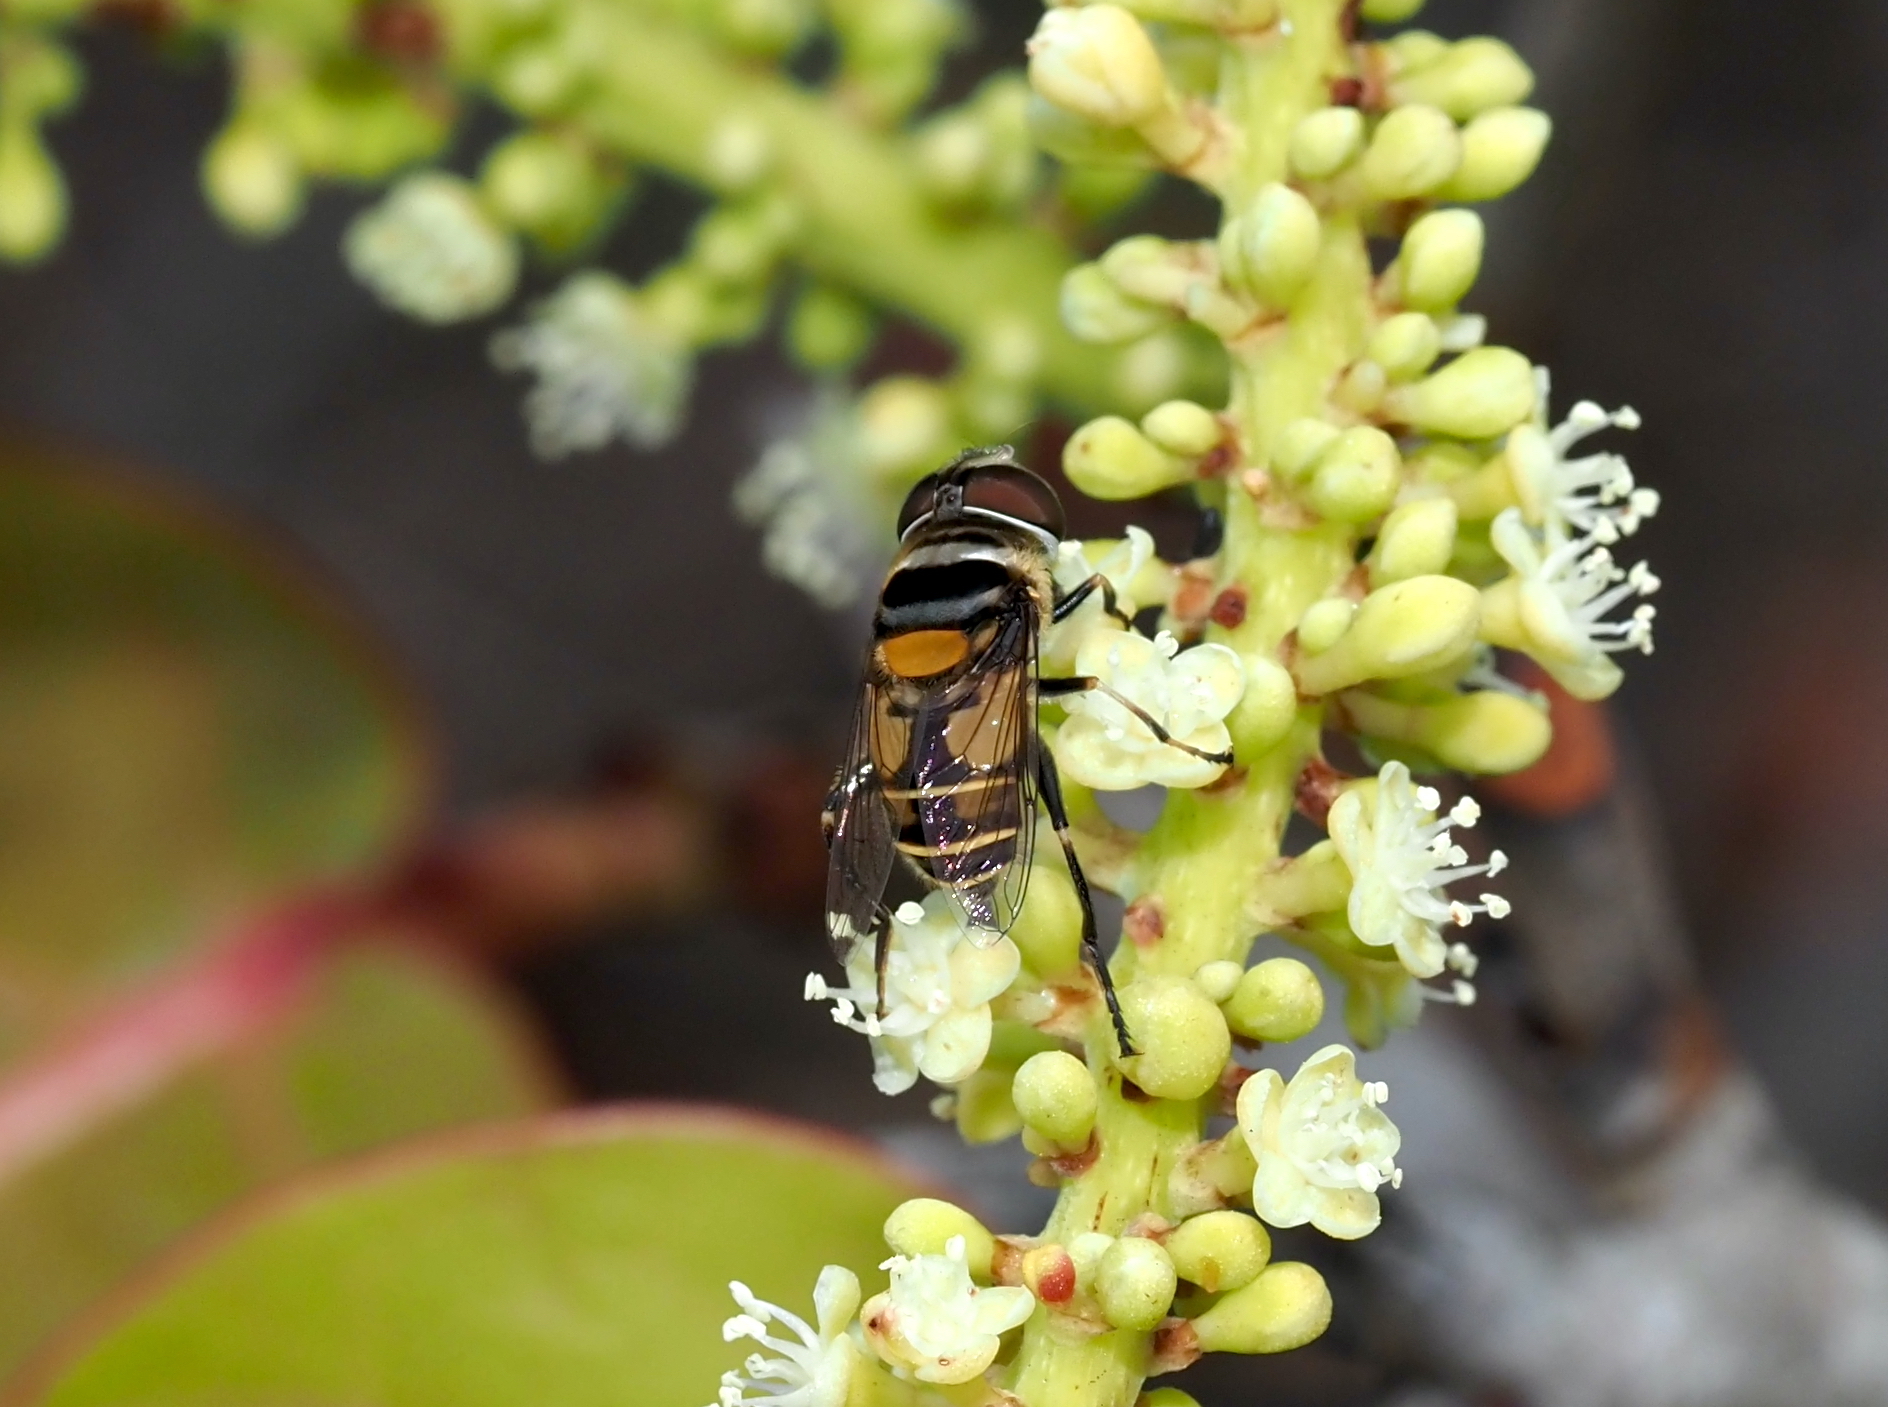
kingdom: Animalia
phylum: Arthropoda
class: Insecta
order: Diptera
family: Syrphidae
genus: Palpada
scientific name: Palpada agrorum
